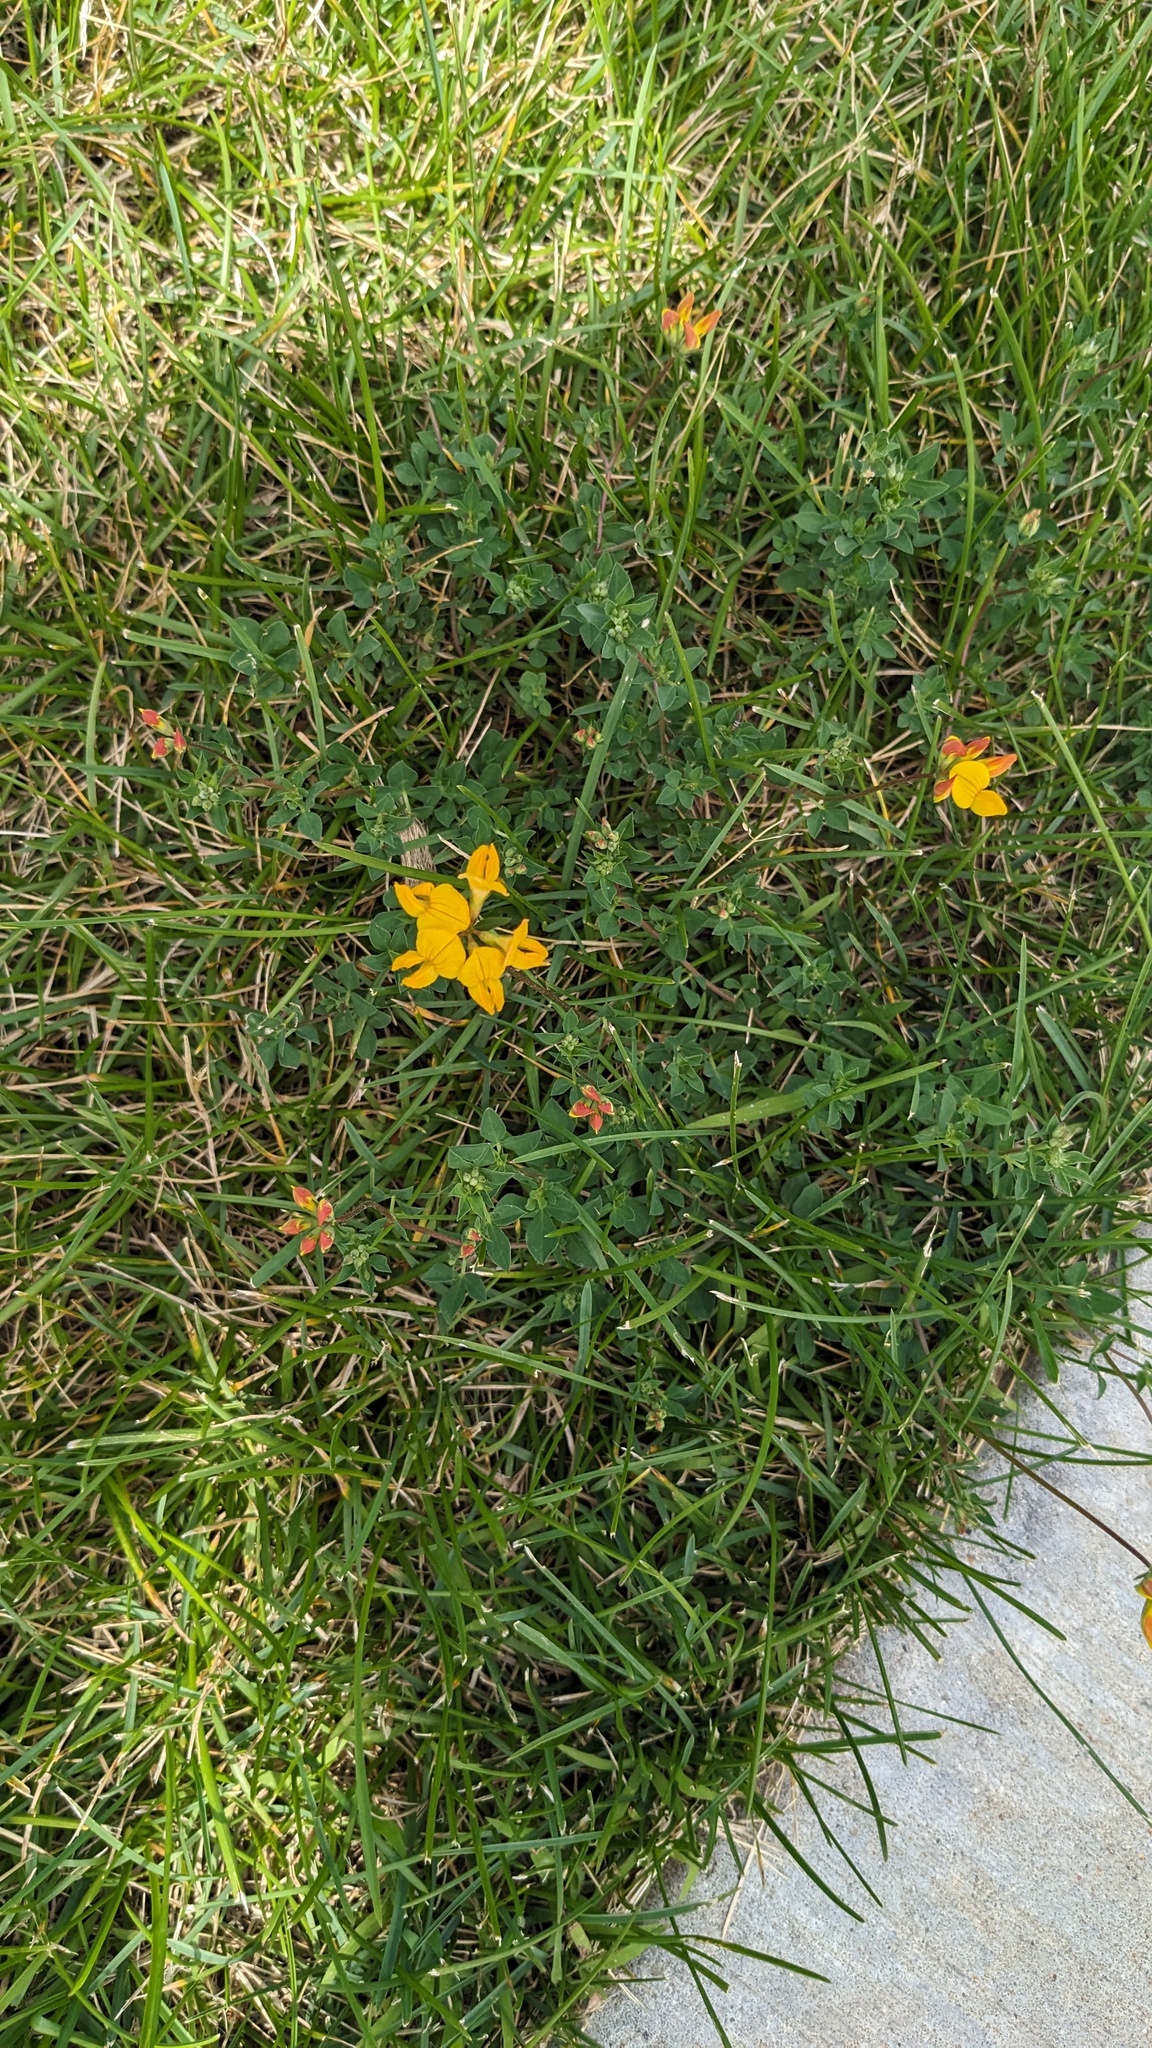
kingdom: Plantae
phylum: Tracheophyta
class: Magnoliopsida
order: Fabales
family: Fabaceae
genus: Lotus
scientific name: Lotus corniculatus
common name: Common bird's-foot-trefoil
